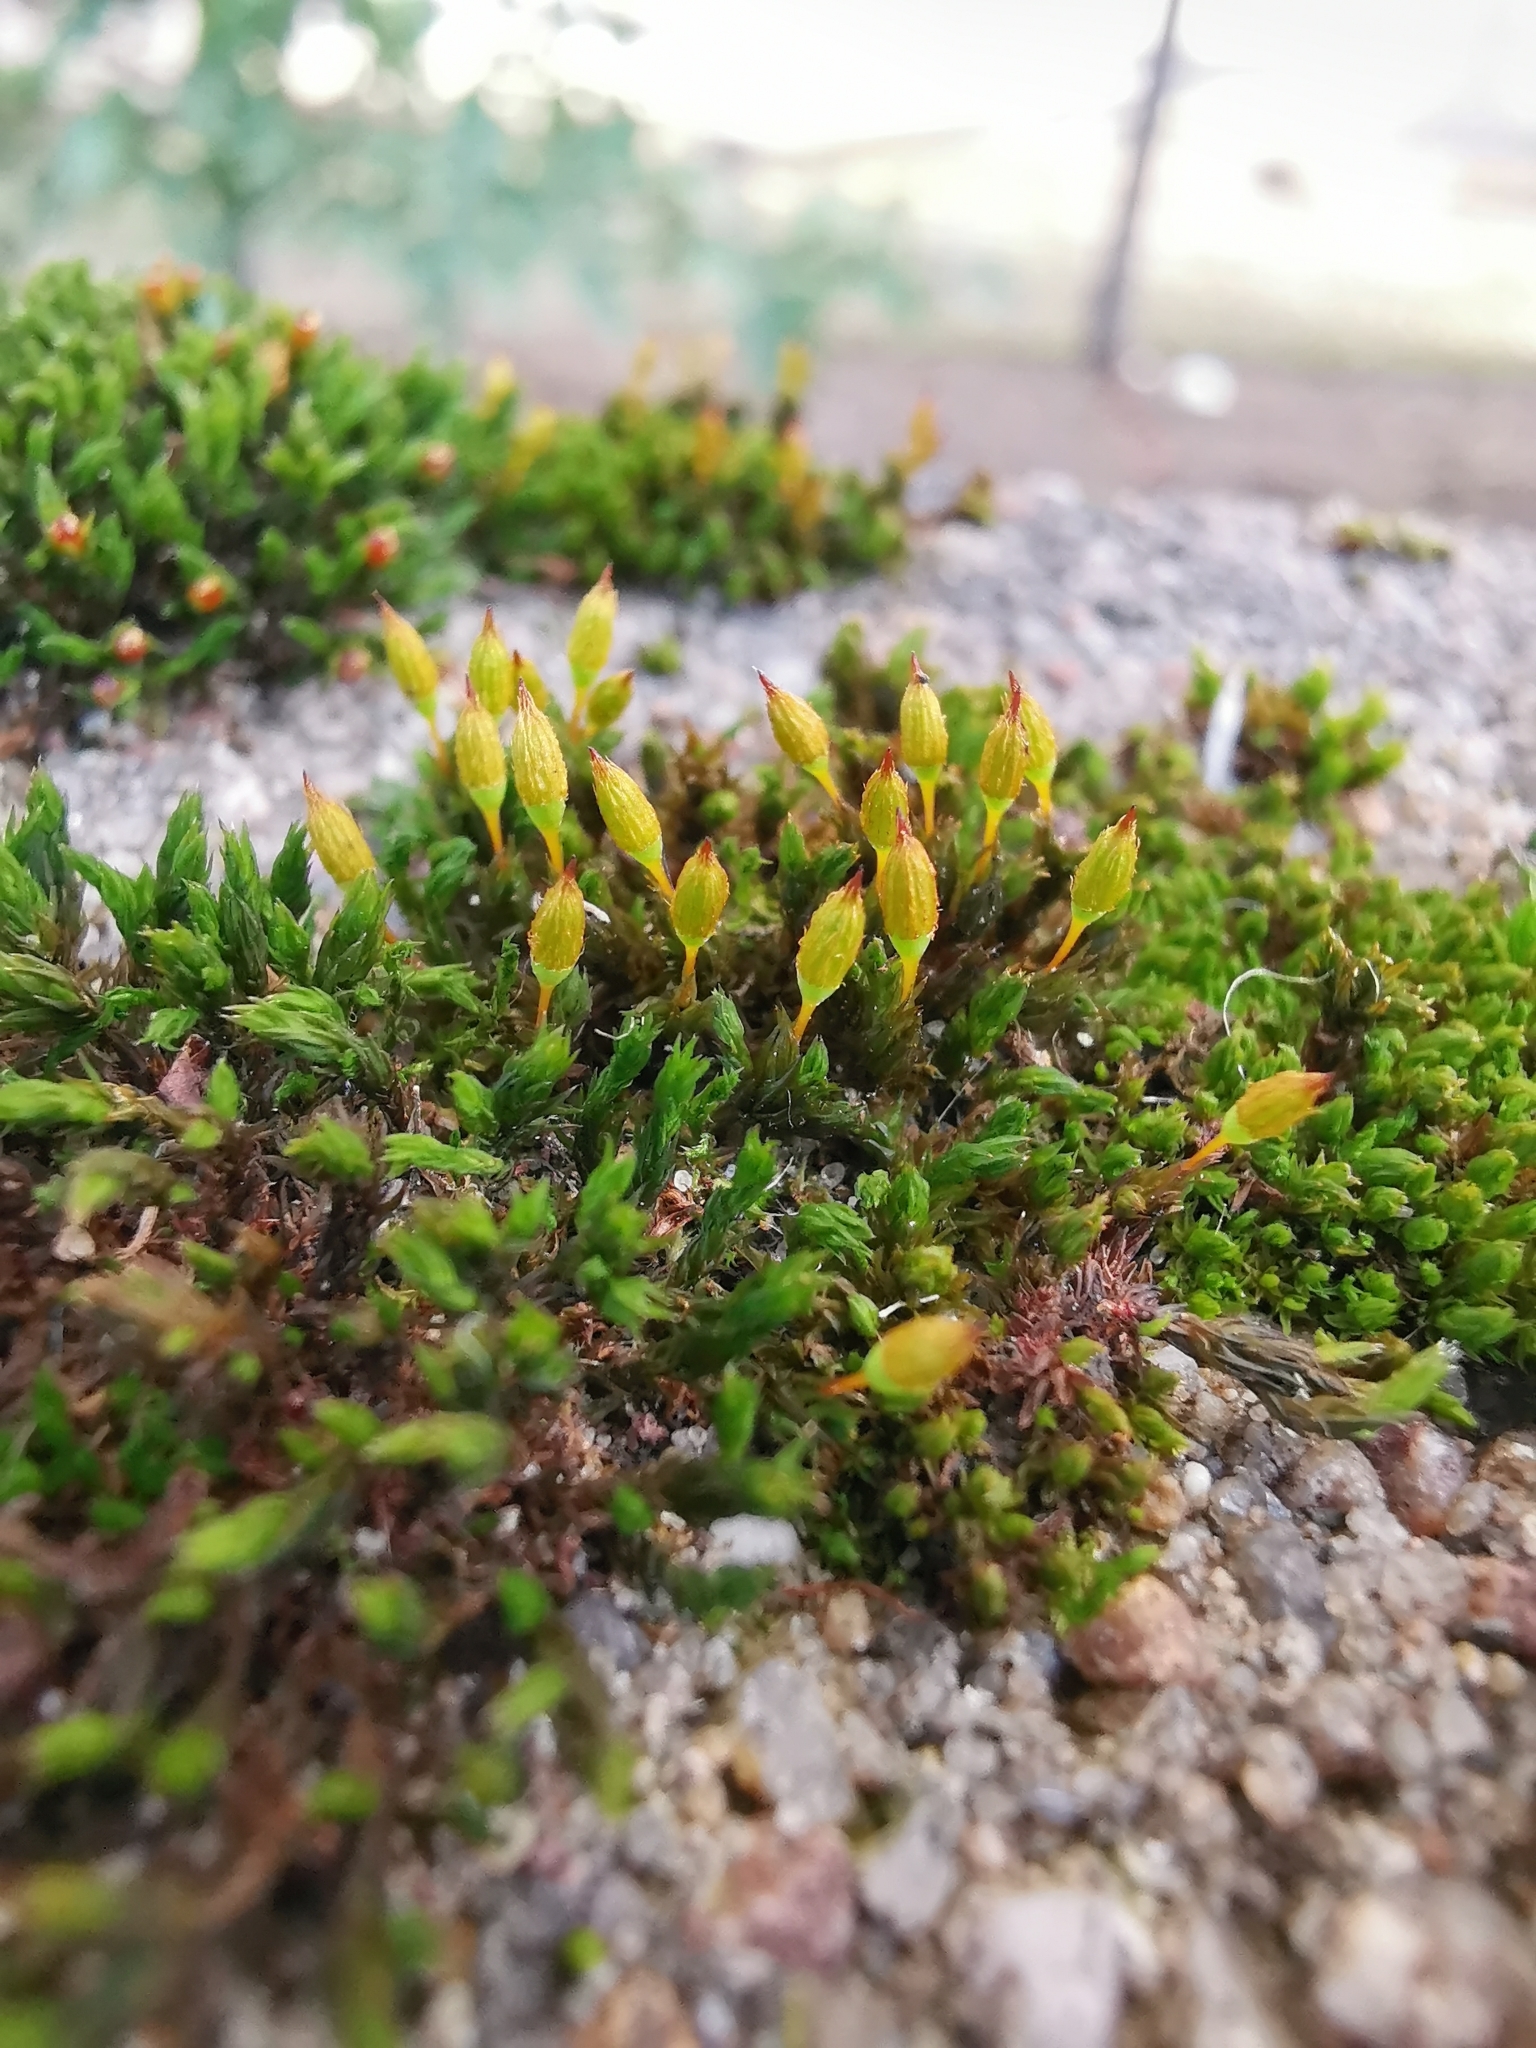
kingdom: Plantae
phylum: Bryophyta
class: Bryopsida
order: Orthotrichales
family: Orthotrichaceae
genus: Orthotrichum
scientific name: Orthotrichum anomalum
